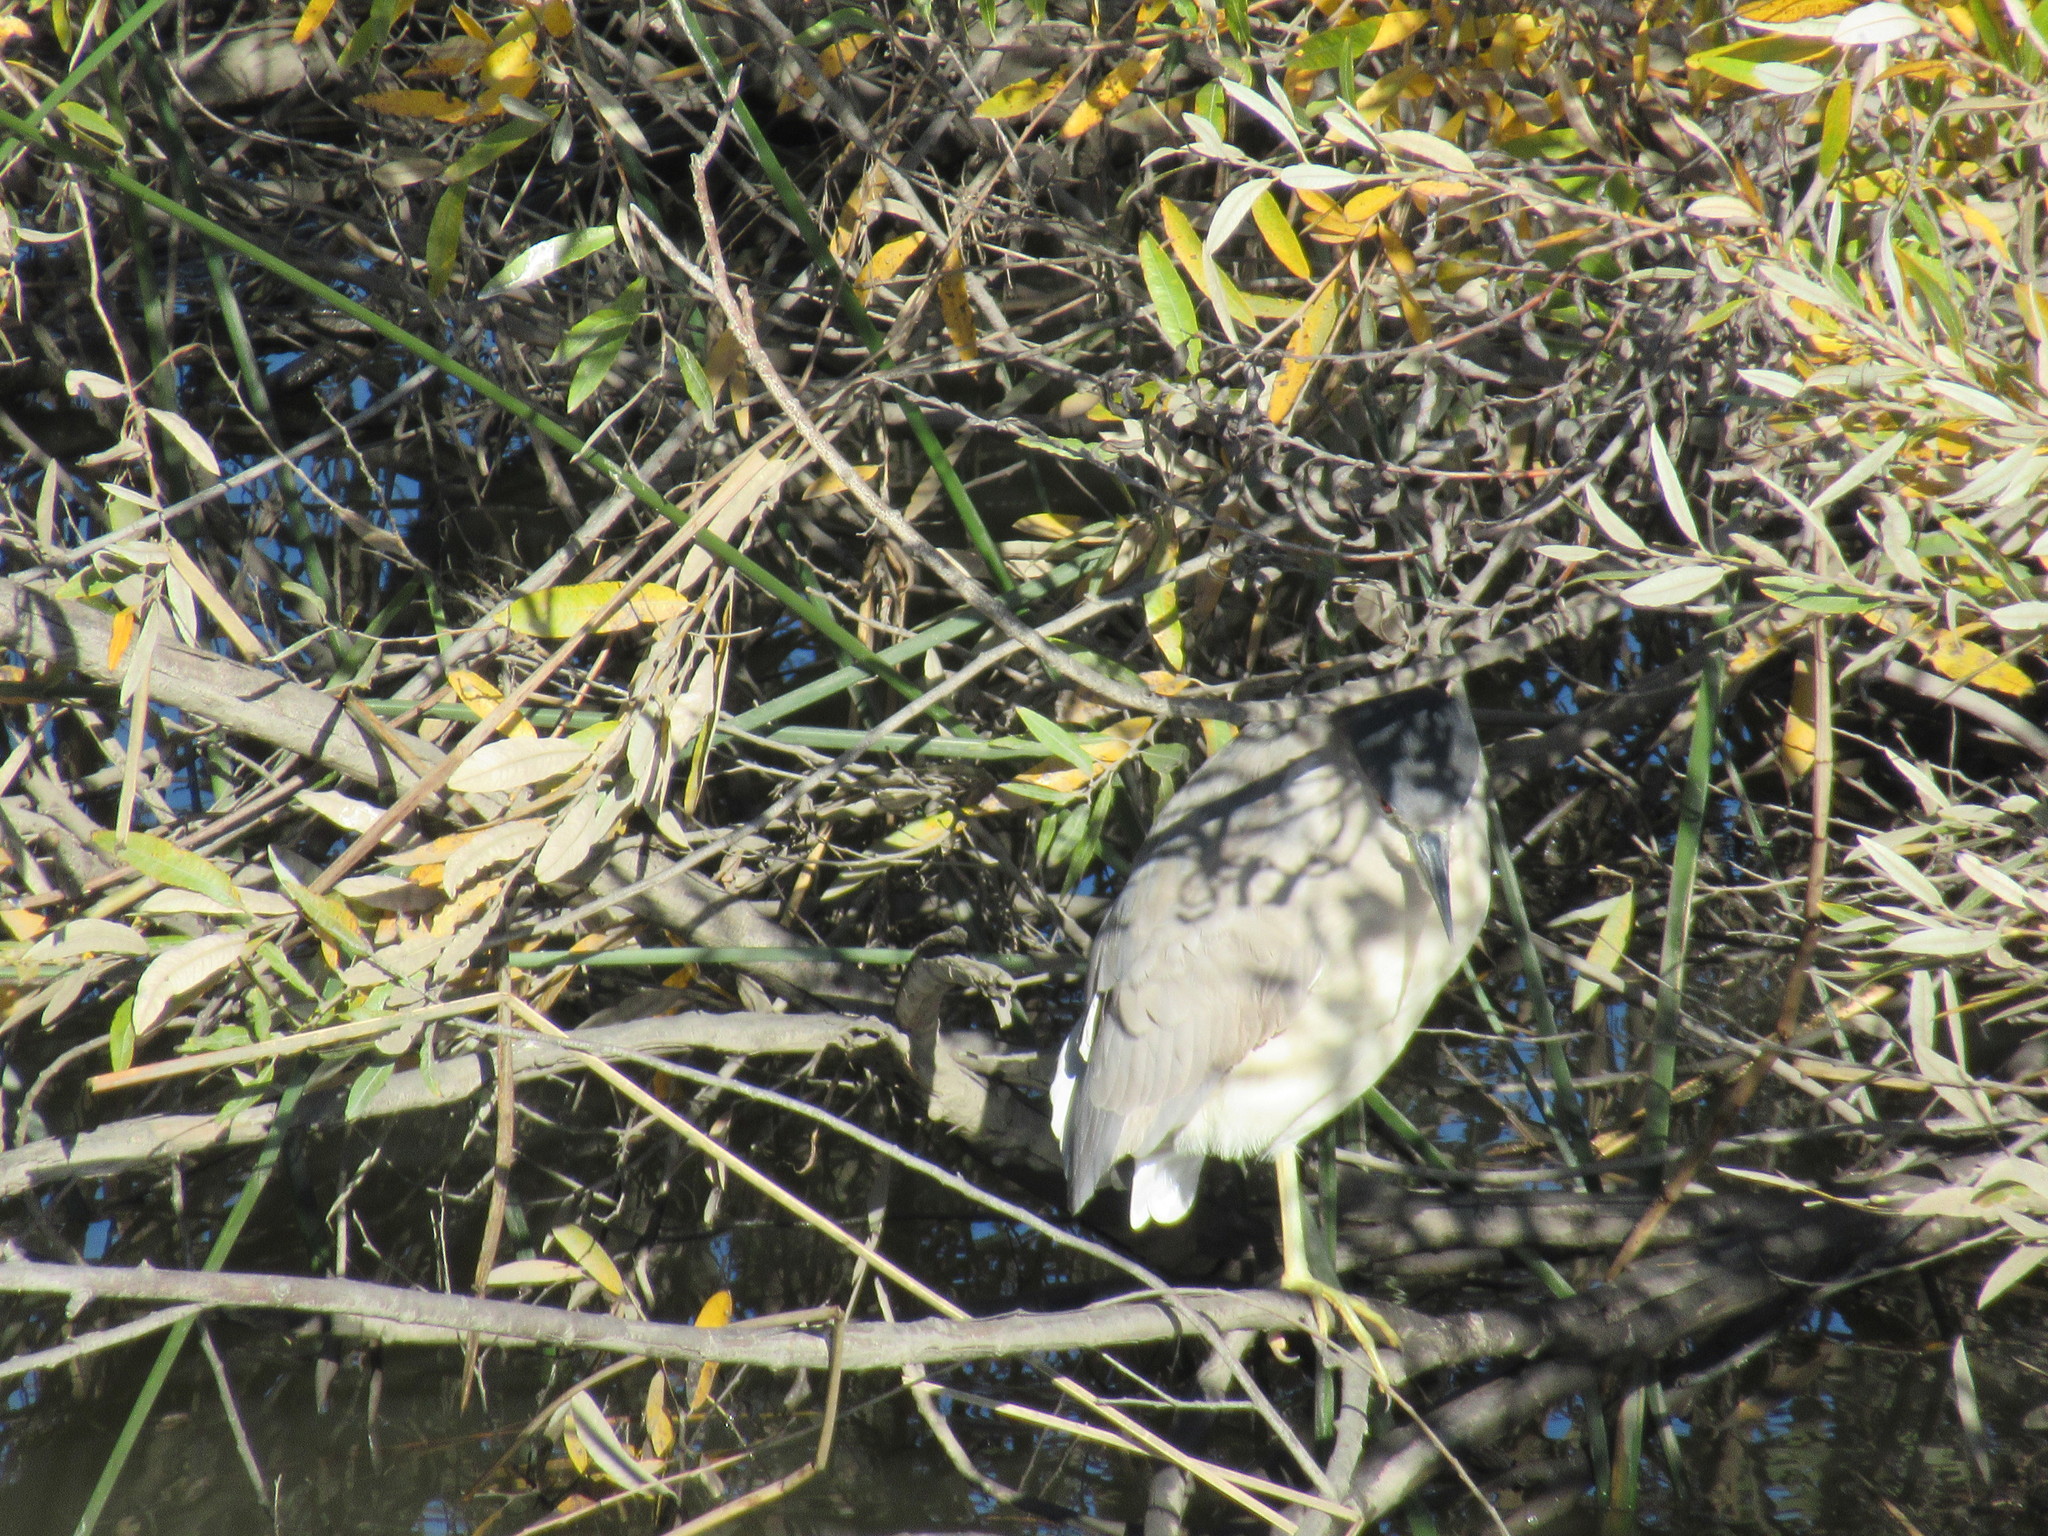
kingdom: Animalia
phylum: Chordata
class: Aves
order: Pelecaniformes
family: Ardeidae
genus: Nycticorax
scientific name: Nycticorax nycticorax
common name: Black-crowned night heron
